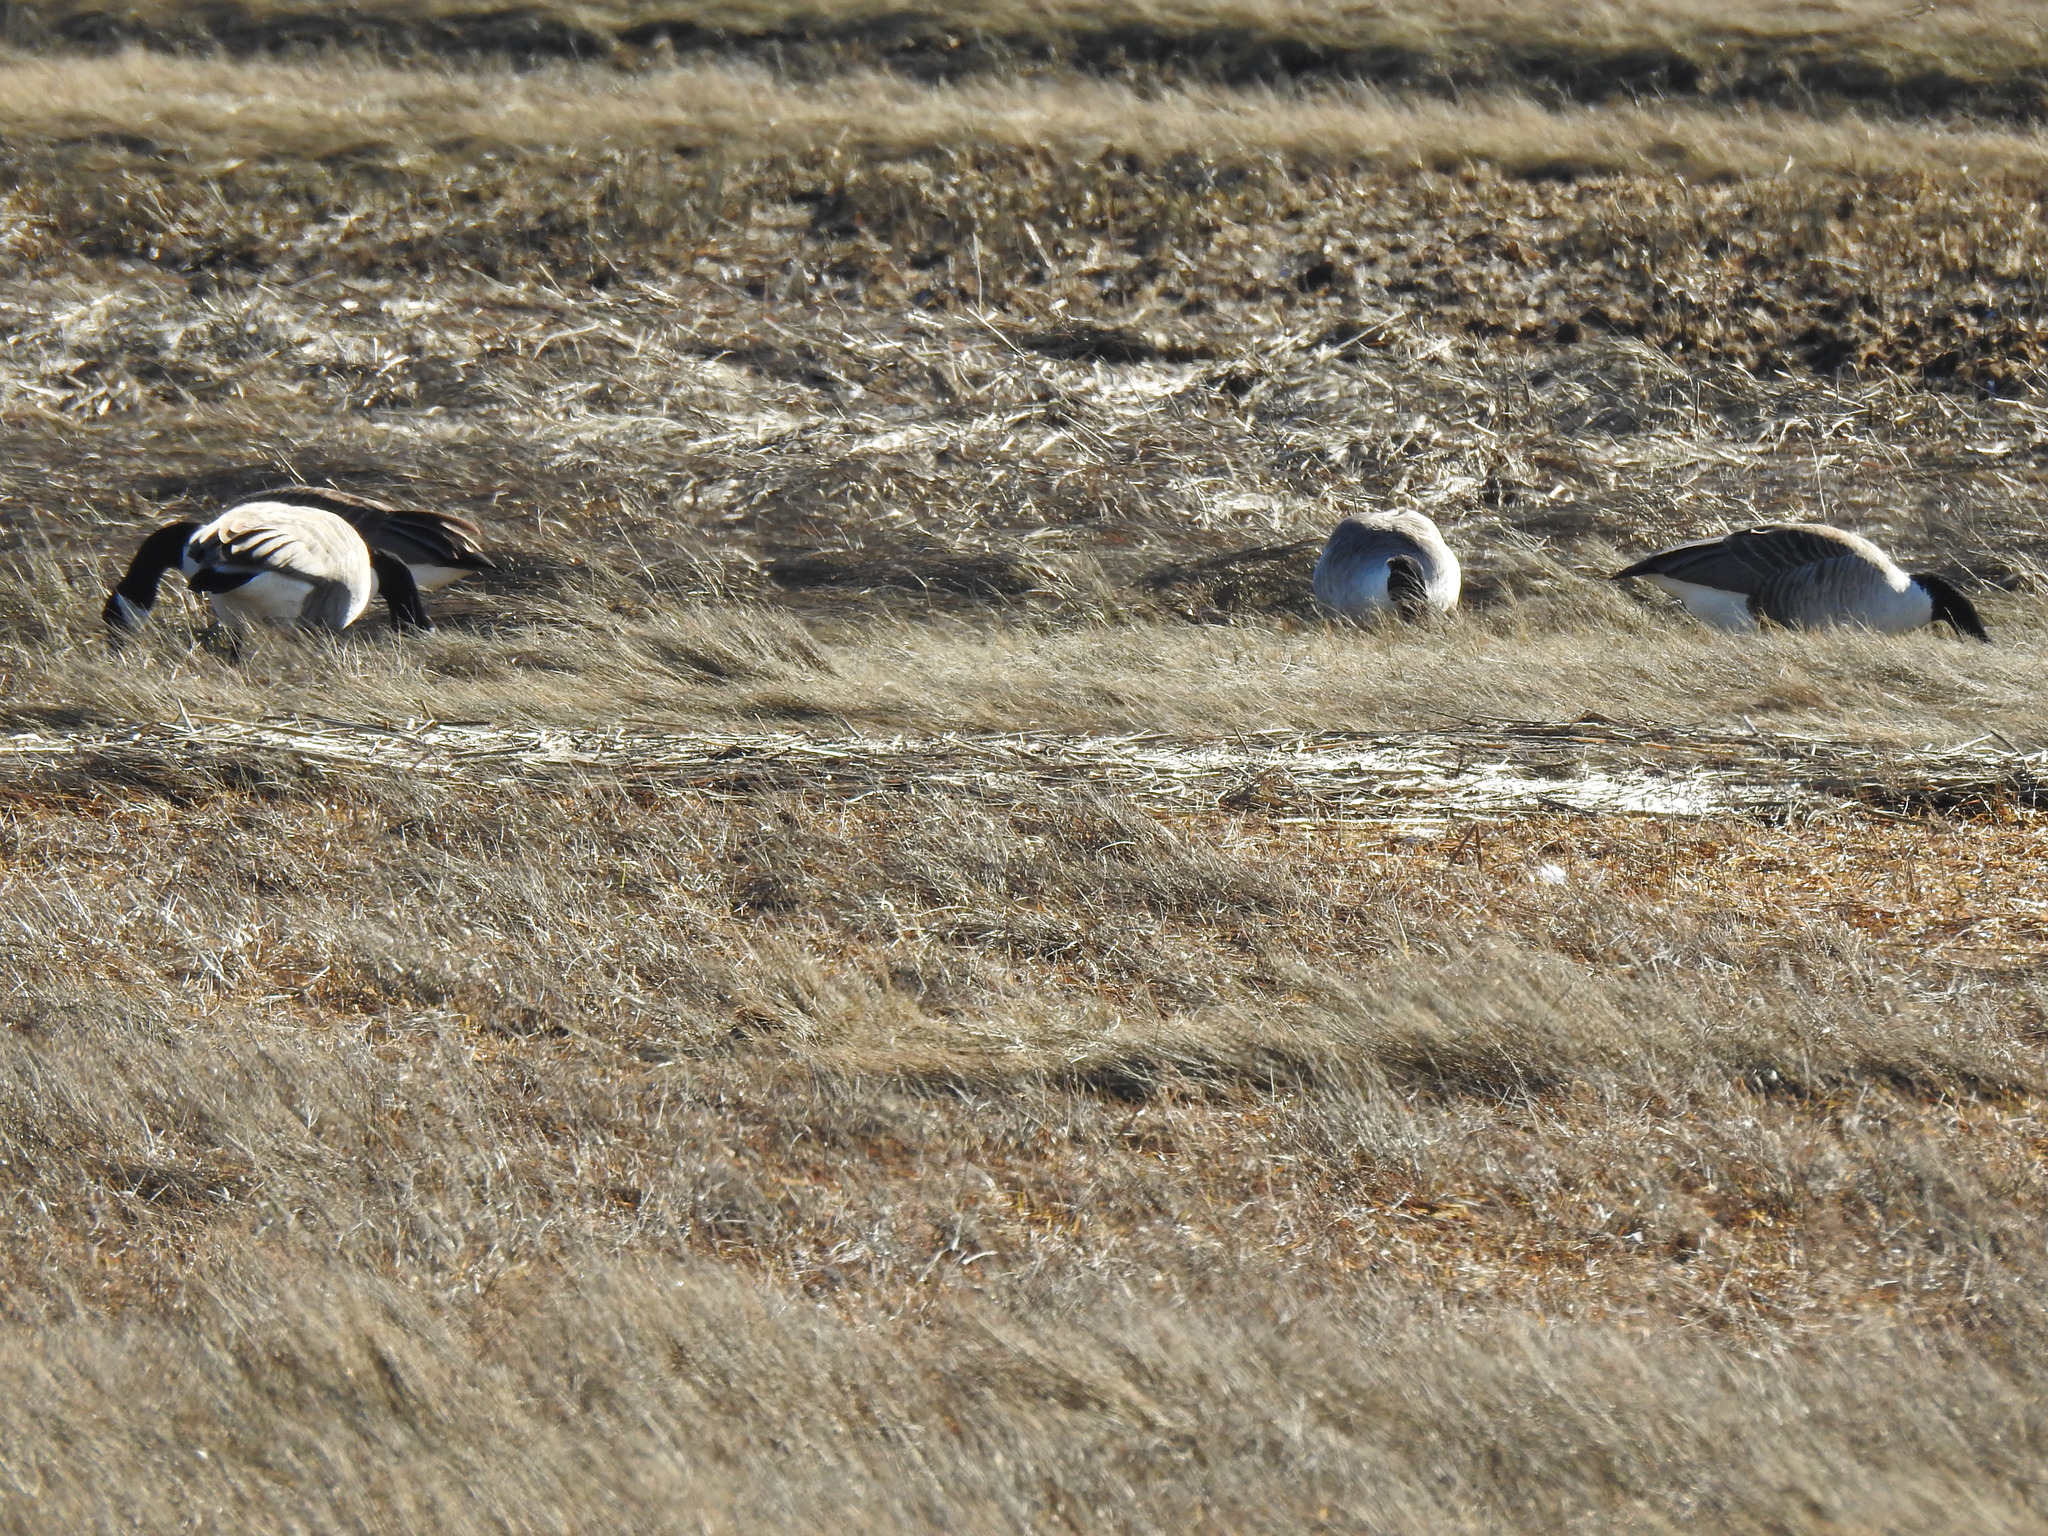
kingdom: Animalia
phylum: Chordata
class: Aves
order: Anseriformes
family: Anatidae
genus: Branta
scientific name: Branta canadensis
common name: Canada goose
